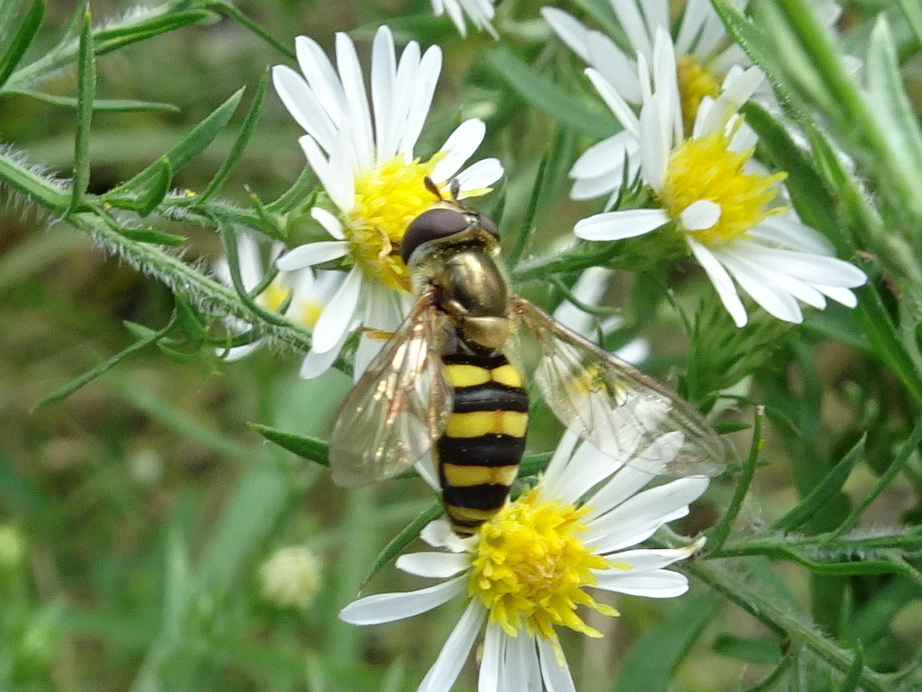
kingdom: Animalia
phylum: Arthropoda
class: Insecta
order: Diptera
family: Syrphidae
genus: Eupeodes
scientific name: Eupeodes
